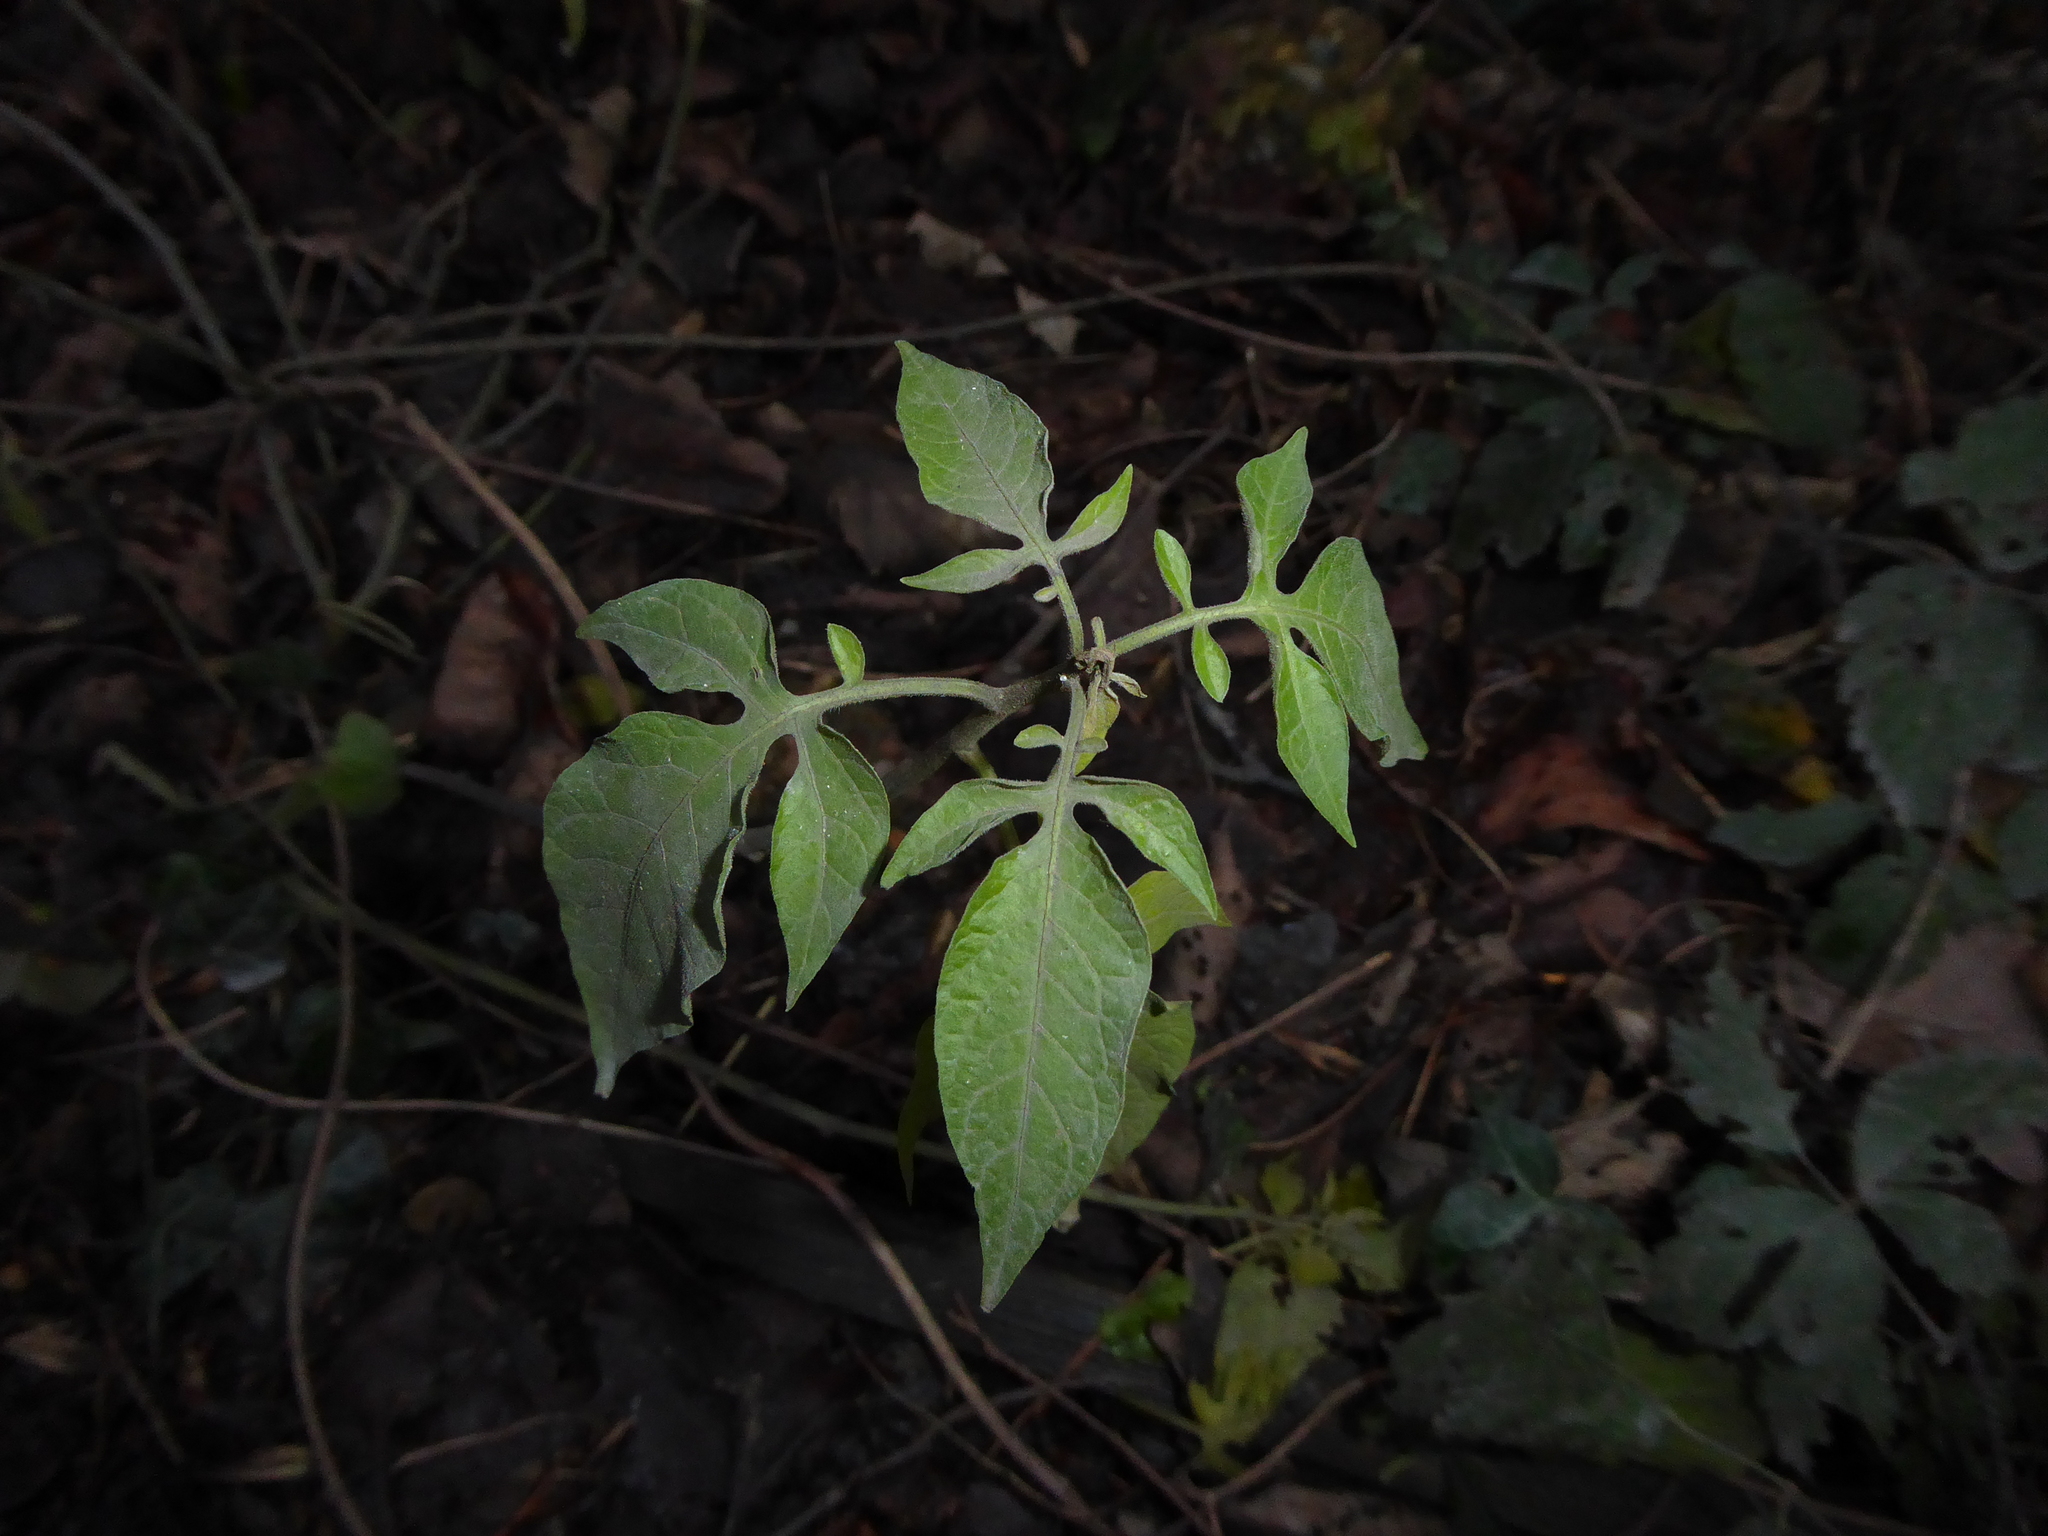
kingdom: Plantae
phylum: Tracheophyta
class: Magnoliopsida
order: Solanales
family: Solanaceae
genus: Solanum
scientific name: Solanum dulcamara
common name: Climbing nightshade
